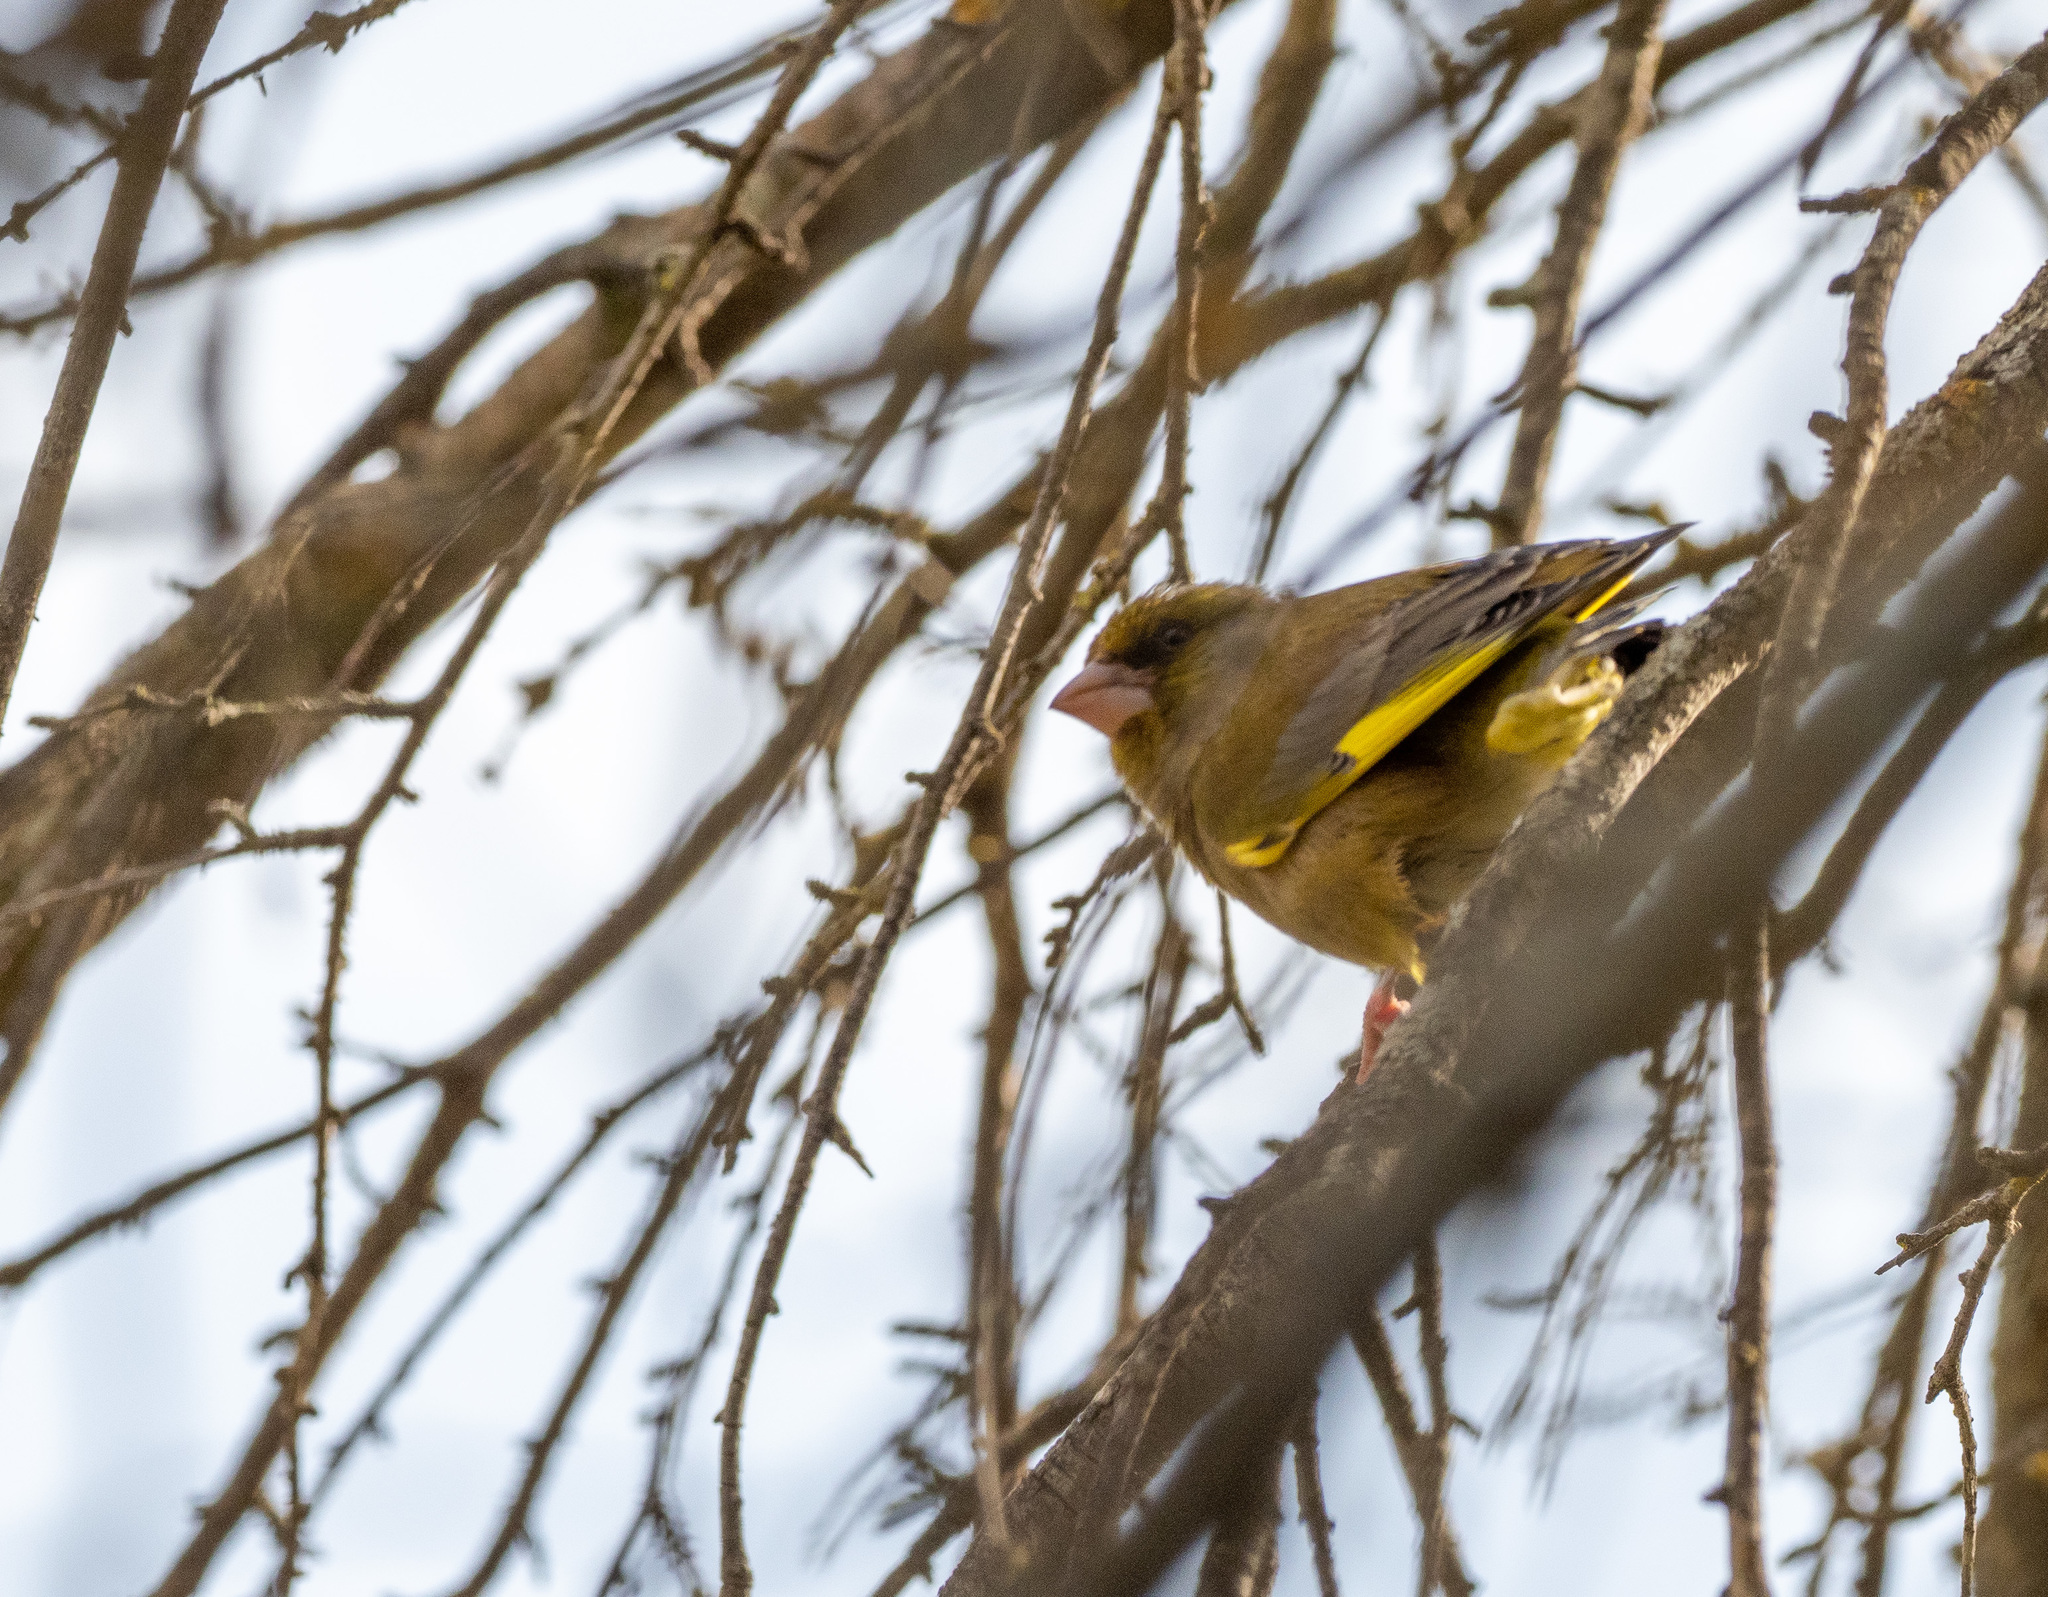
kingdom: Plantae
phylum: Tracheophyta
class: Liliopsida
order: Poales
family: Poaceae
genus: Chloris
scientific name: Chloris chloris
